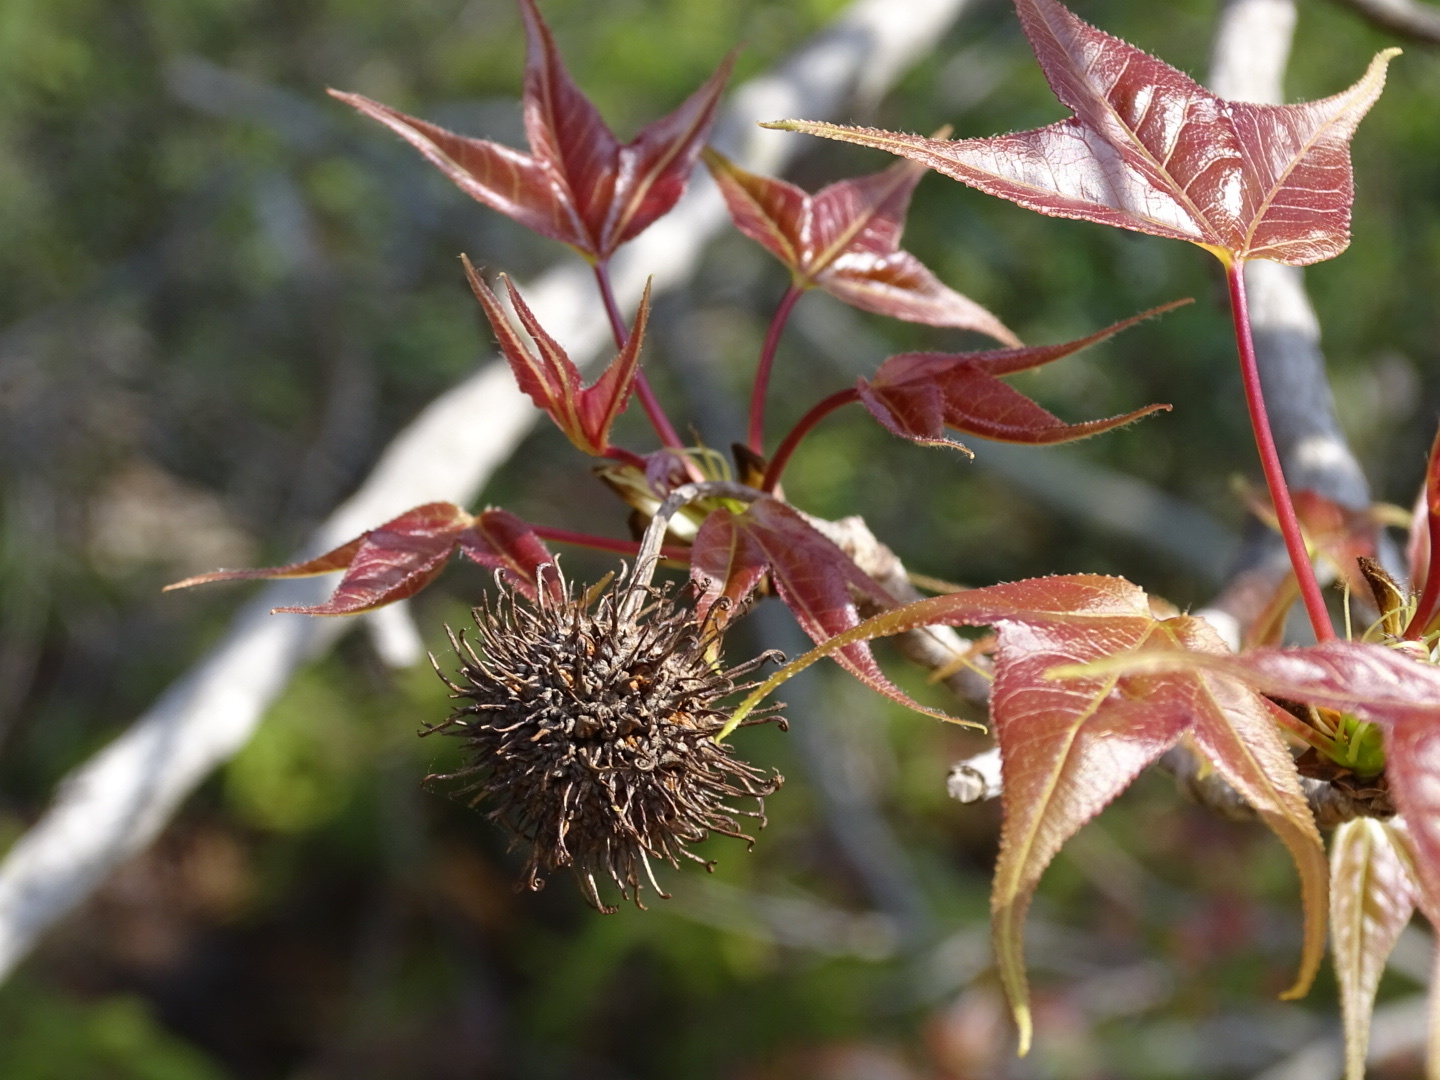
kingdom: Plantae
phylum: Tracheophyta
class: Magnoliopsida
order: Saxifragales
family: Altingiaceae
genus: Liquidambar
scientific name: Liquidambar formosana
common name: Chinese sweet gum
